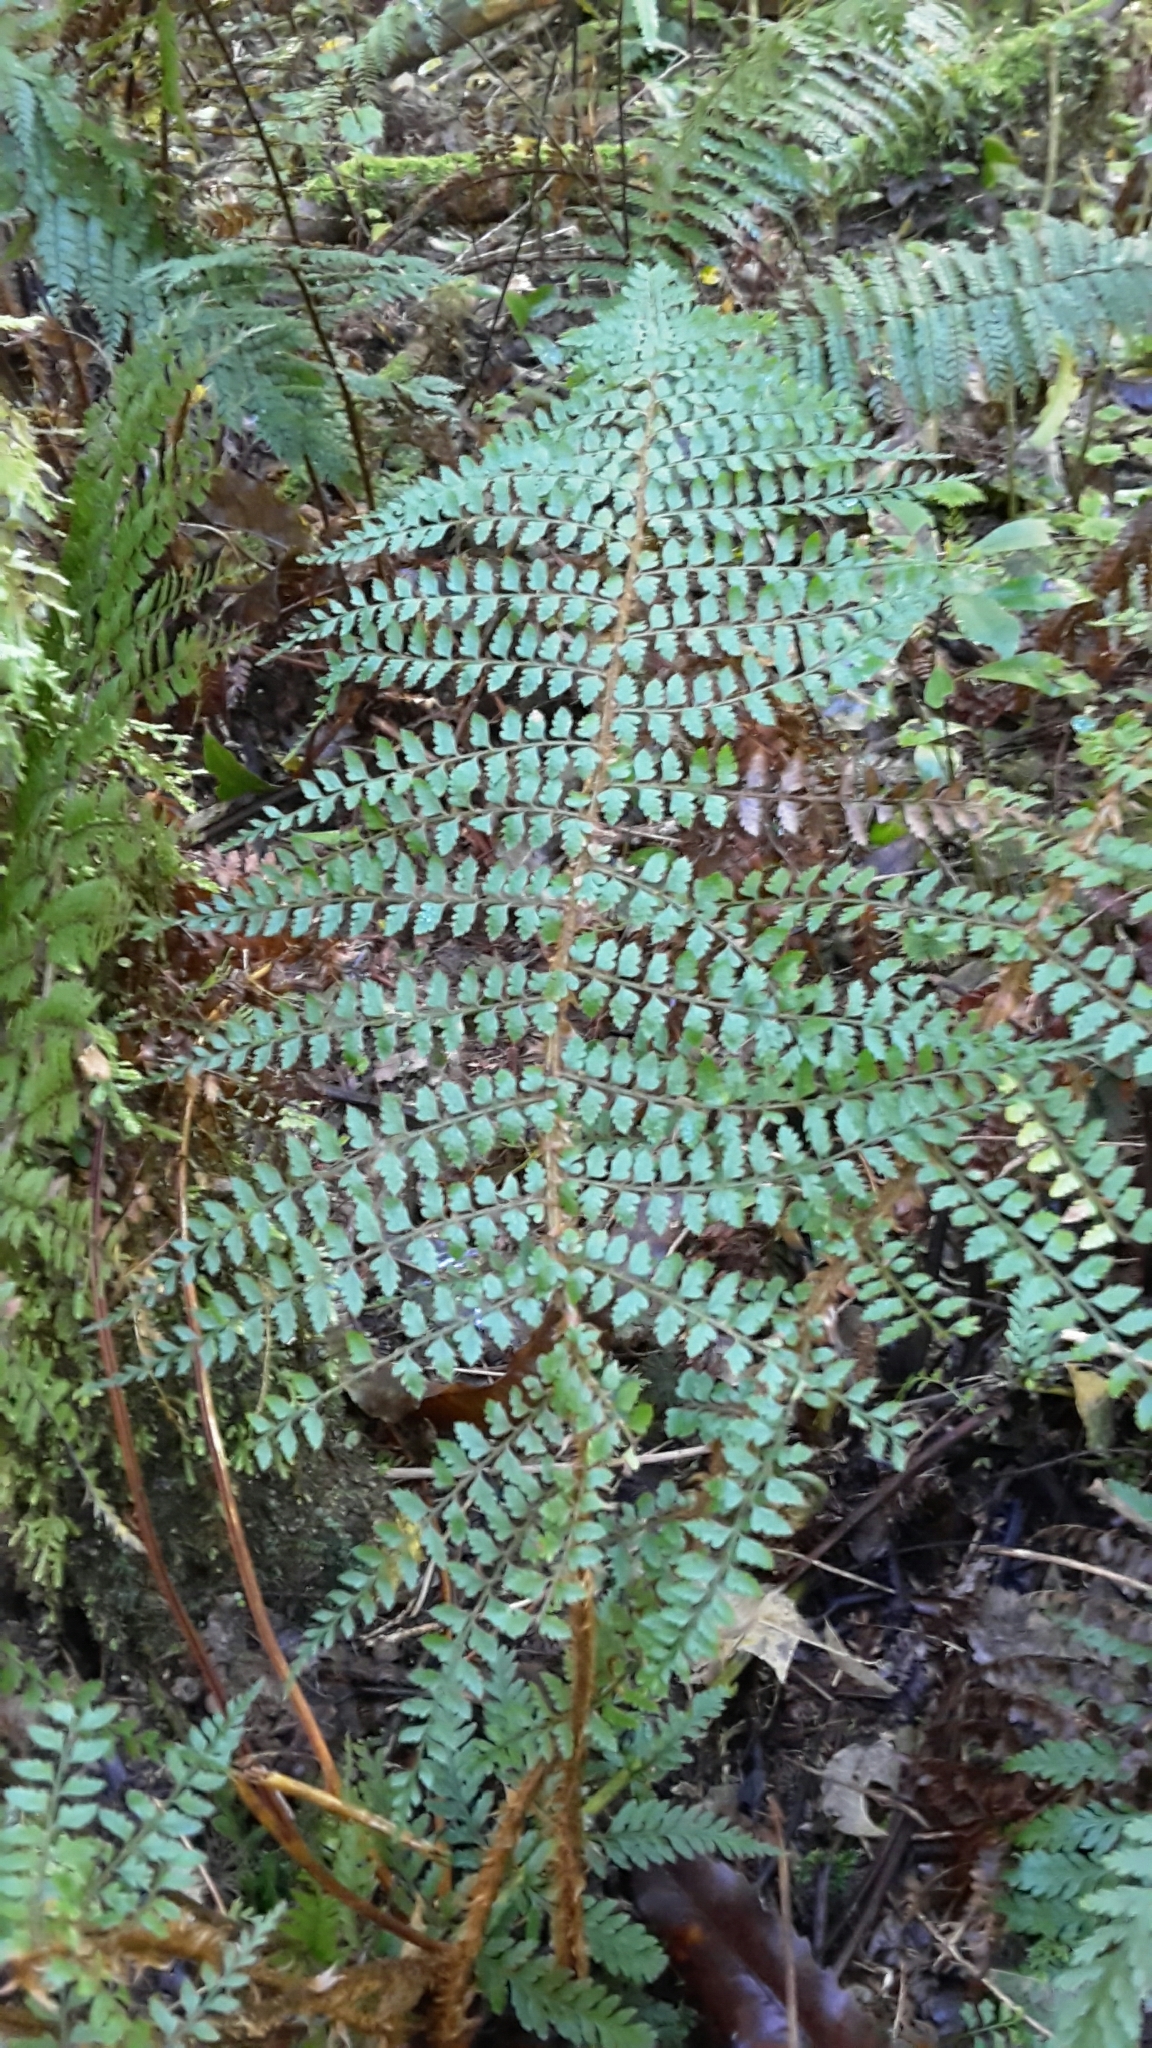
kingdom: Plantae
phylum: Tracheophyta
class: Polypodiopsida
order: Polypodiales
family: Dryopteridaceae
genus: Polystichum
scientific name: Polystichum vestitum
